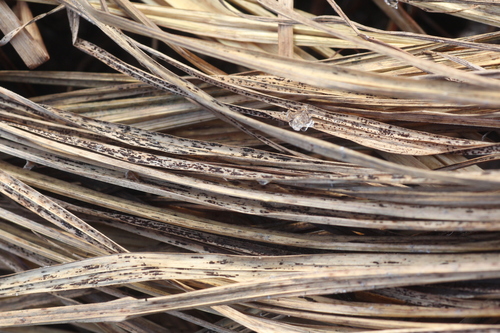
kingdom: Fungi
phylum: Basidiomycota
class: Pucciniomycetes
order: Pucciniales
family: Pucciniaceae
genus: Puccinia
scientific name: Puccinia
